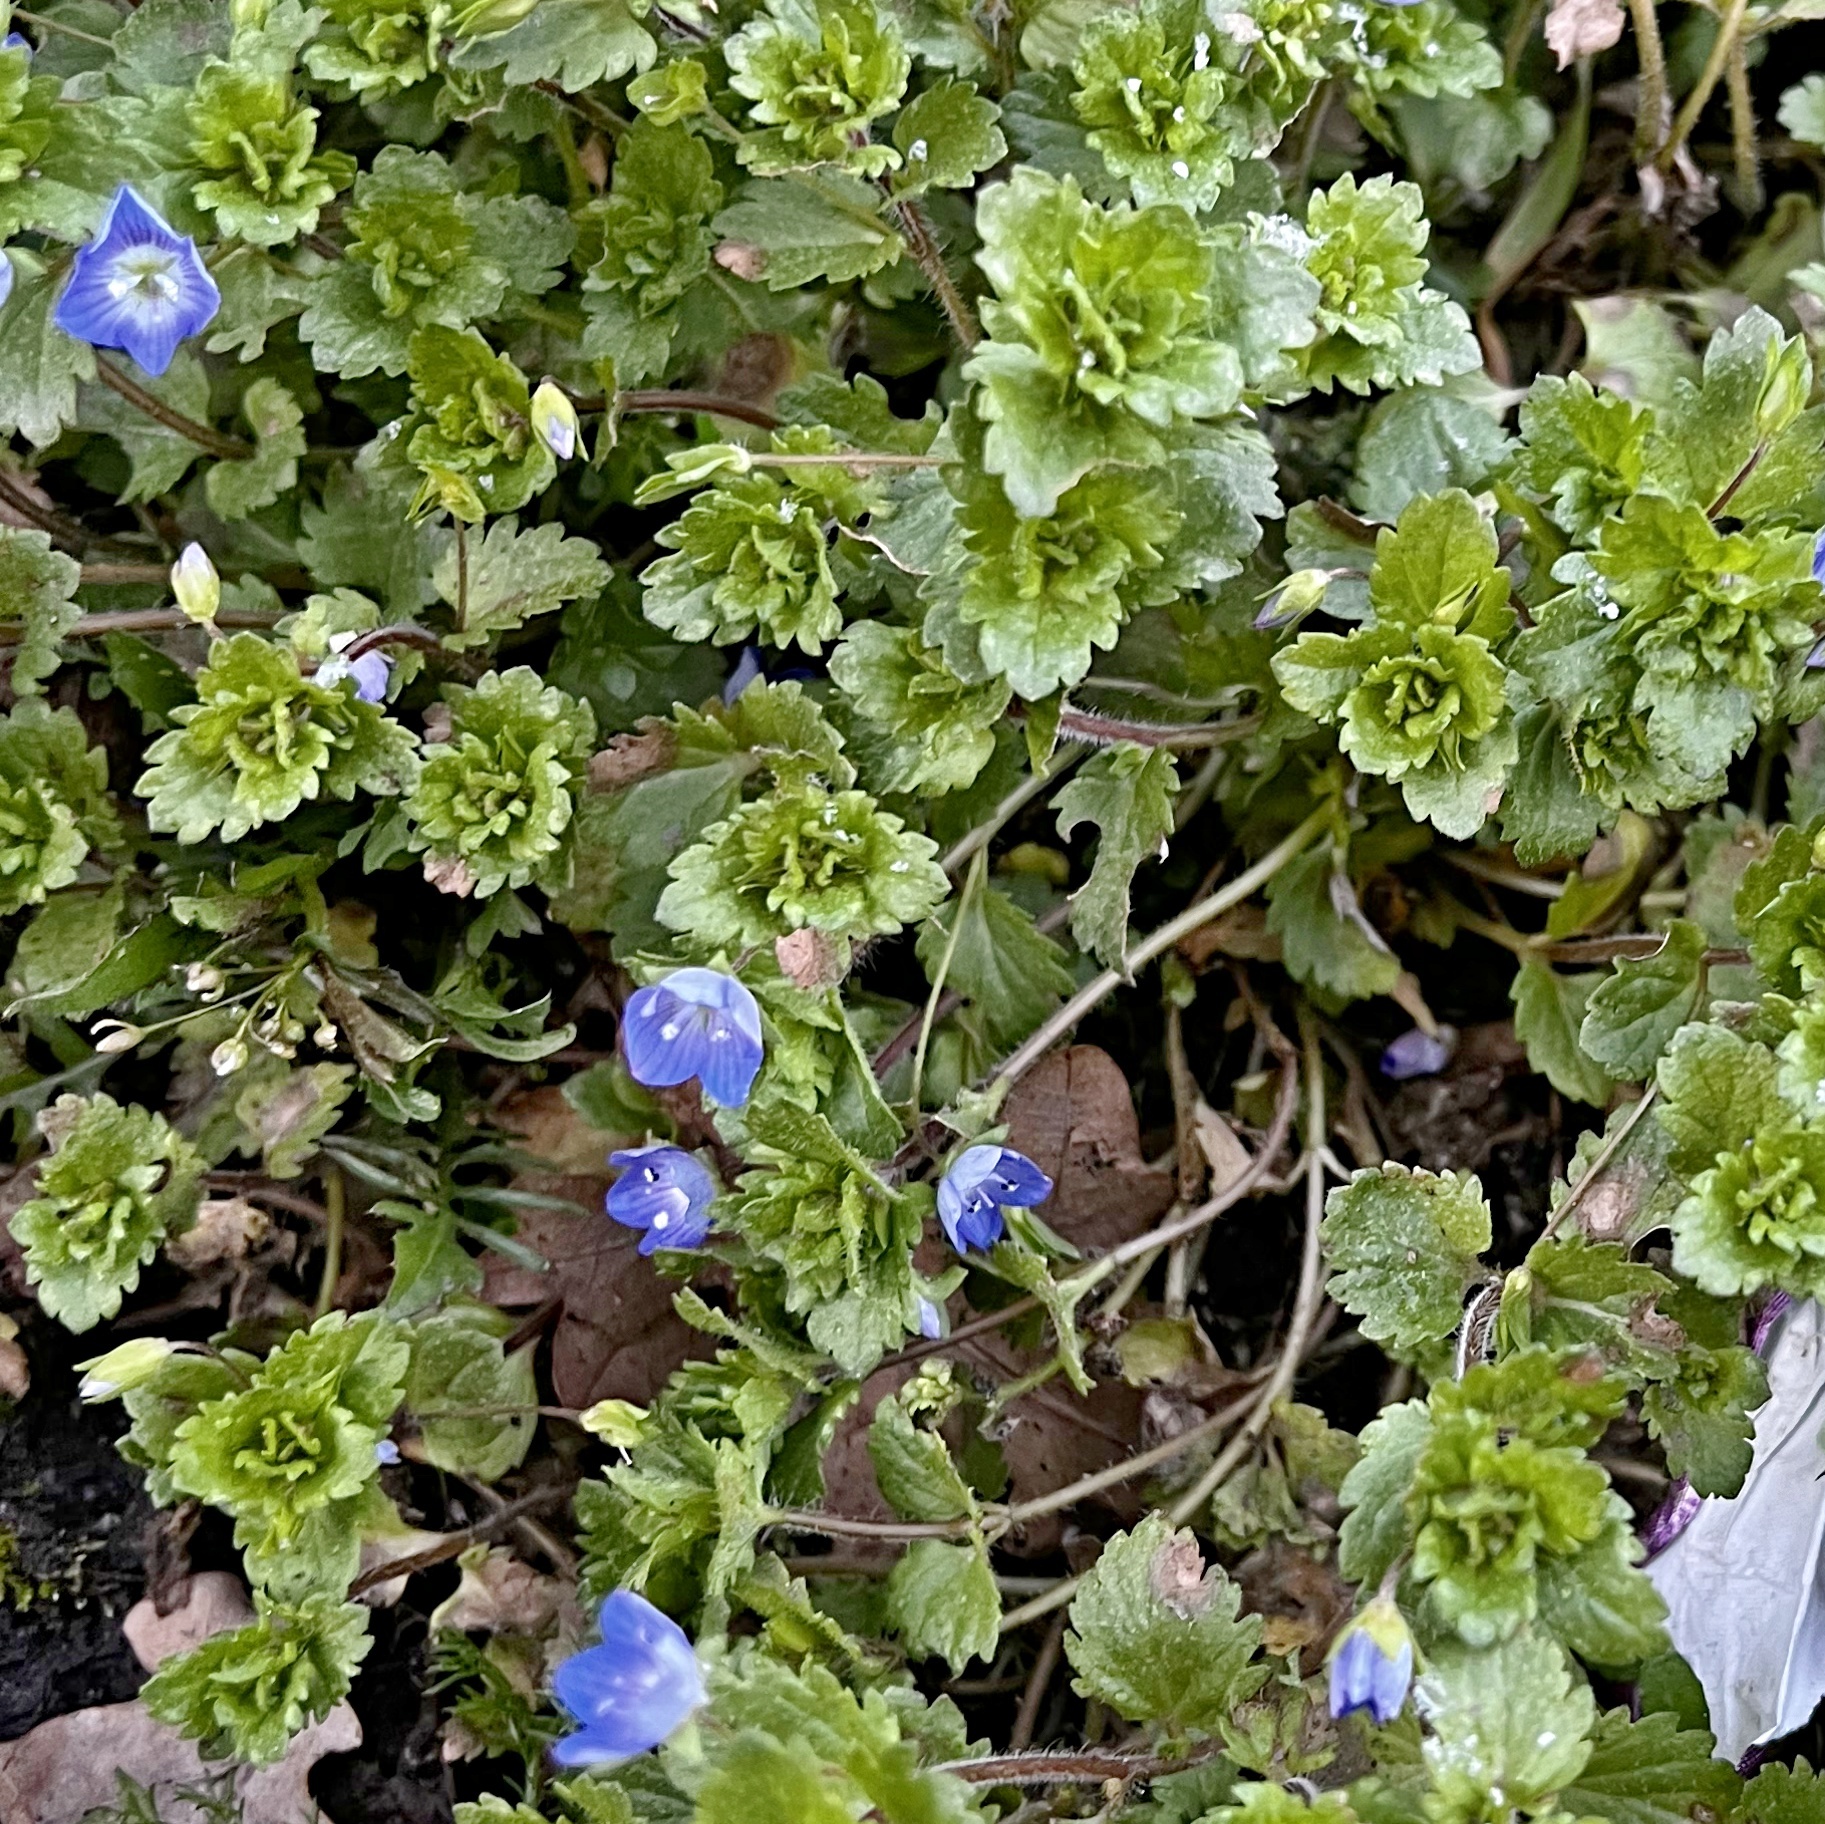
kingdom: Plantae
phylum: Tracheophyta
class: Magnoliopsida
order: Lamiales
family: Plantaginaceae
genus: Veronica
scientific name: Veronica persica
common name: Common field-speedwell
